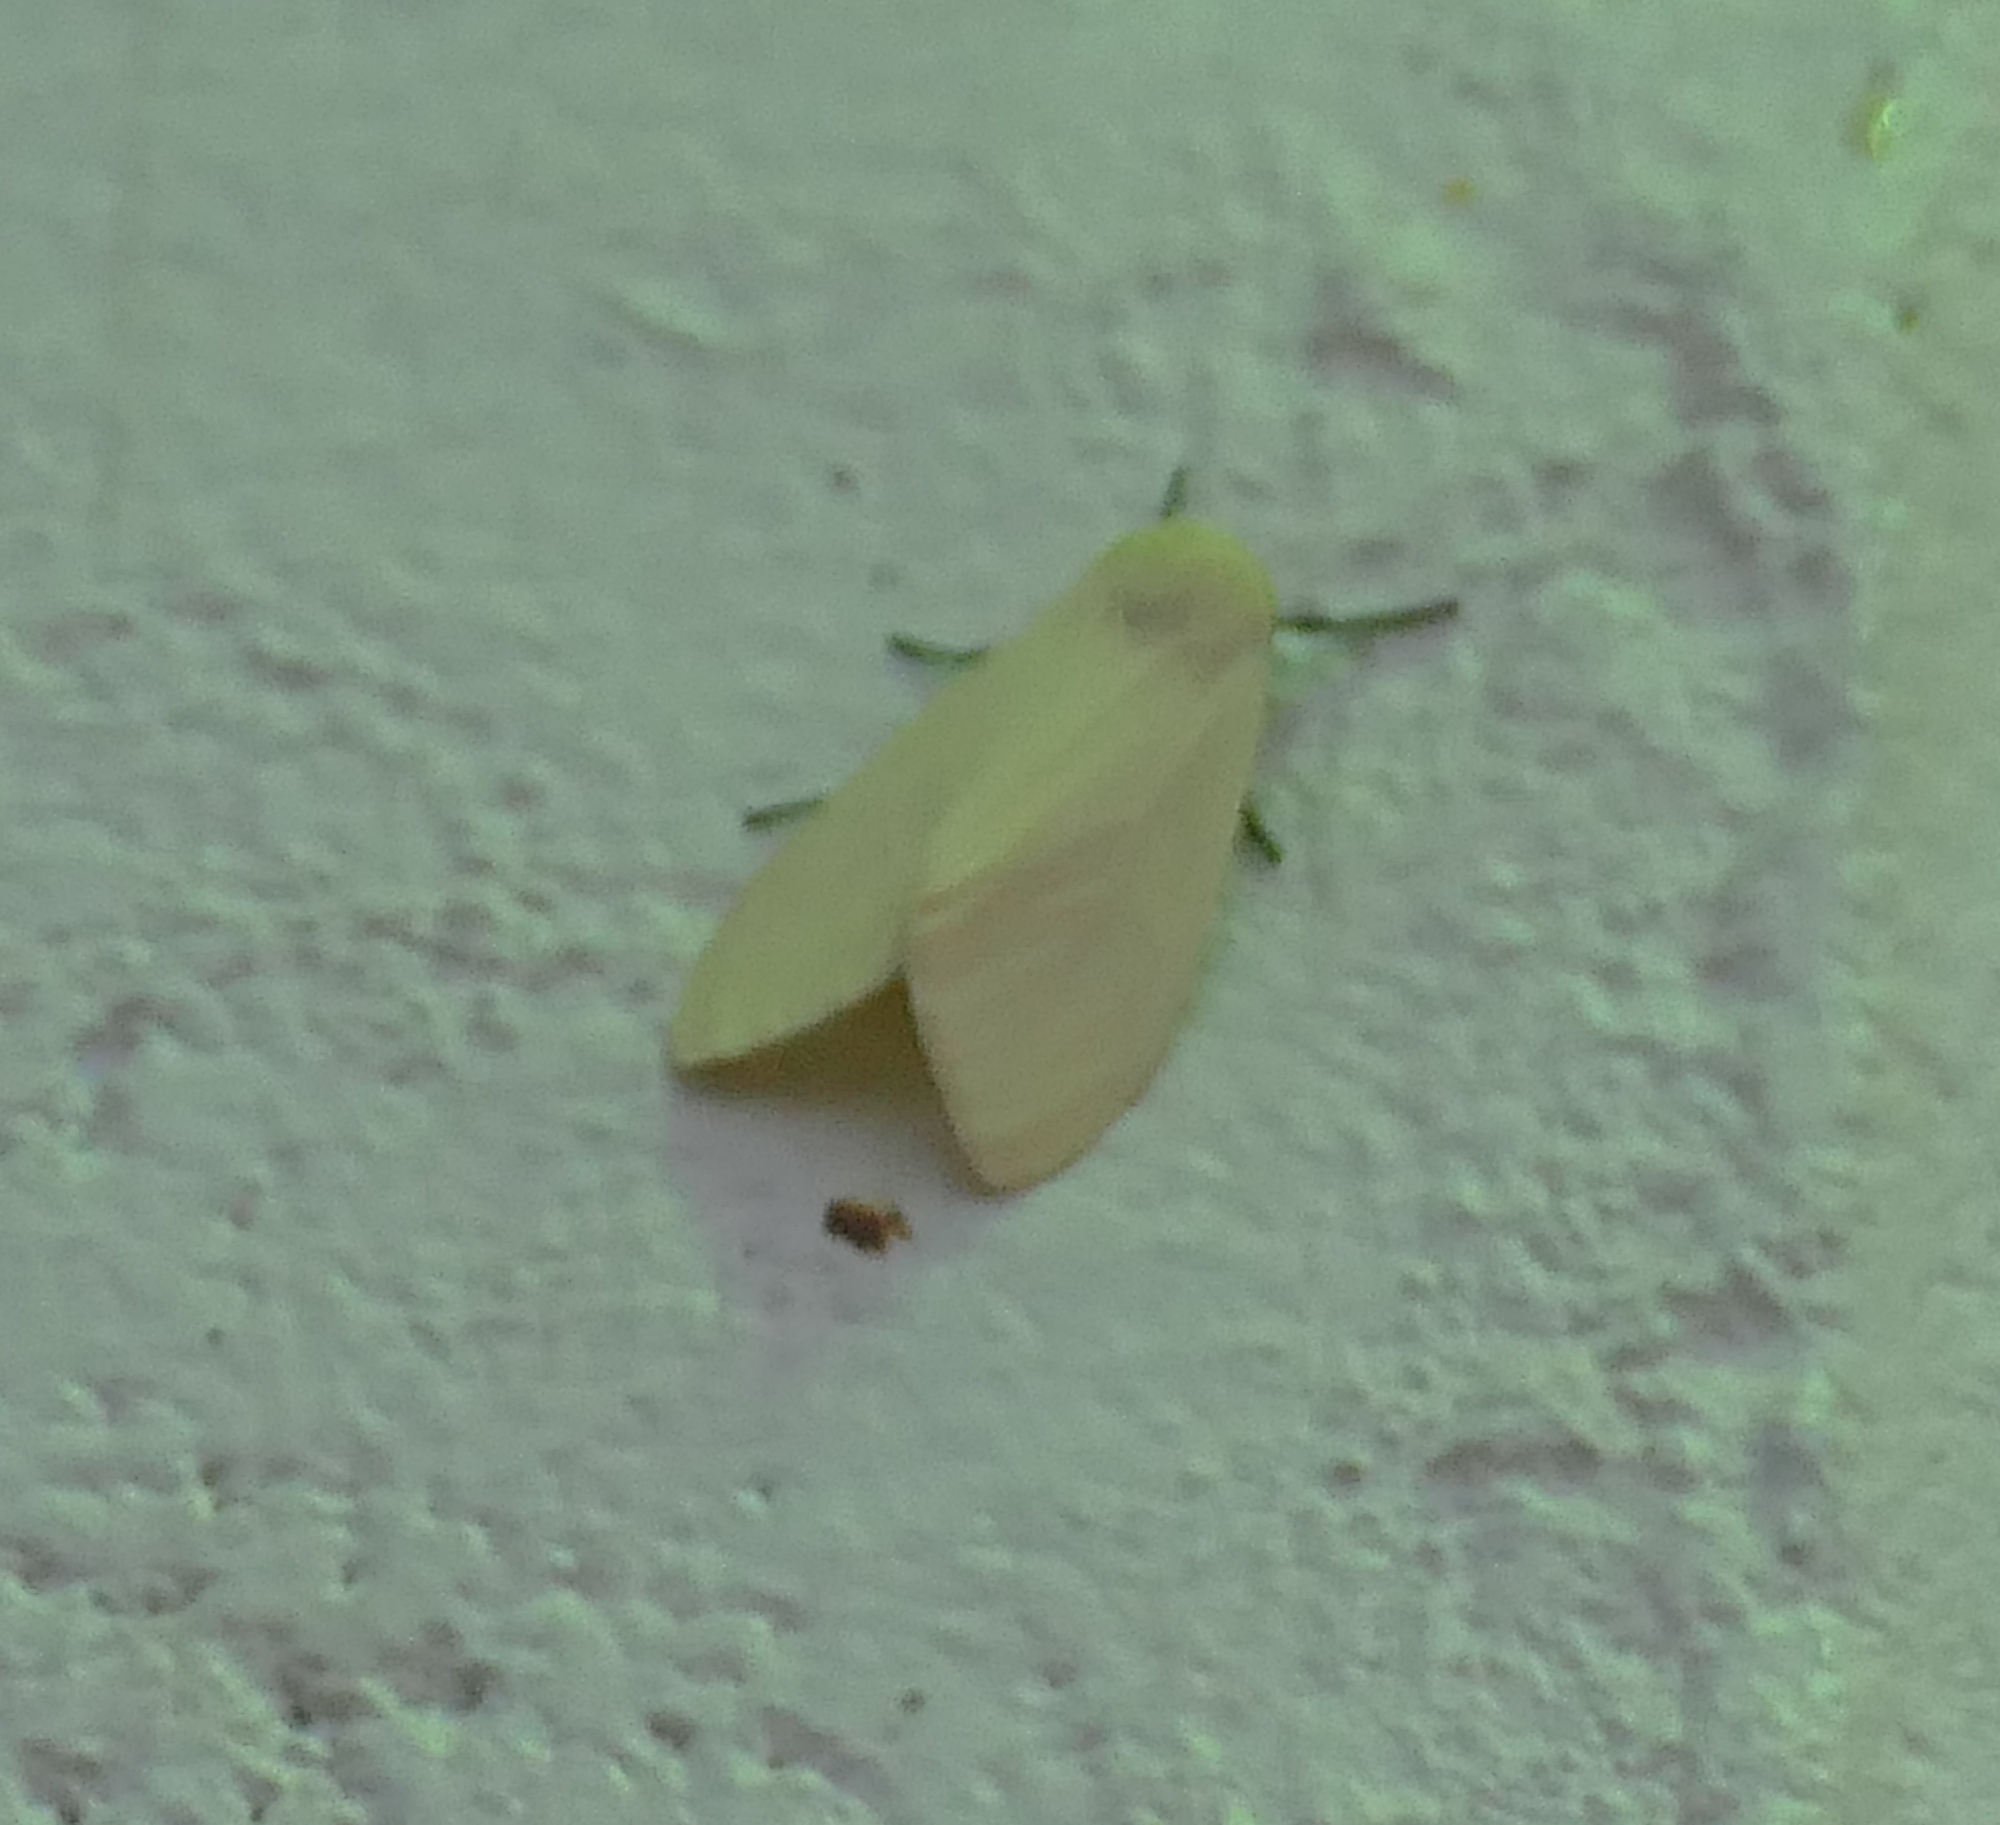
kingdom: Animalia
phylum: Arthropoda
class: Insecta
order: Lepidoptera
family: Erebidae
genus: Pareuchaetes
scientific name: Pareuchaetes insulata
